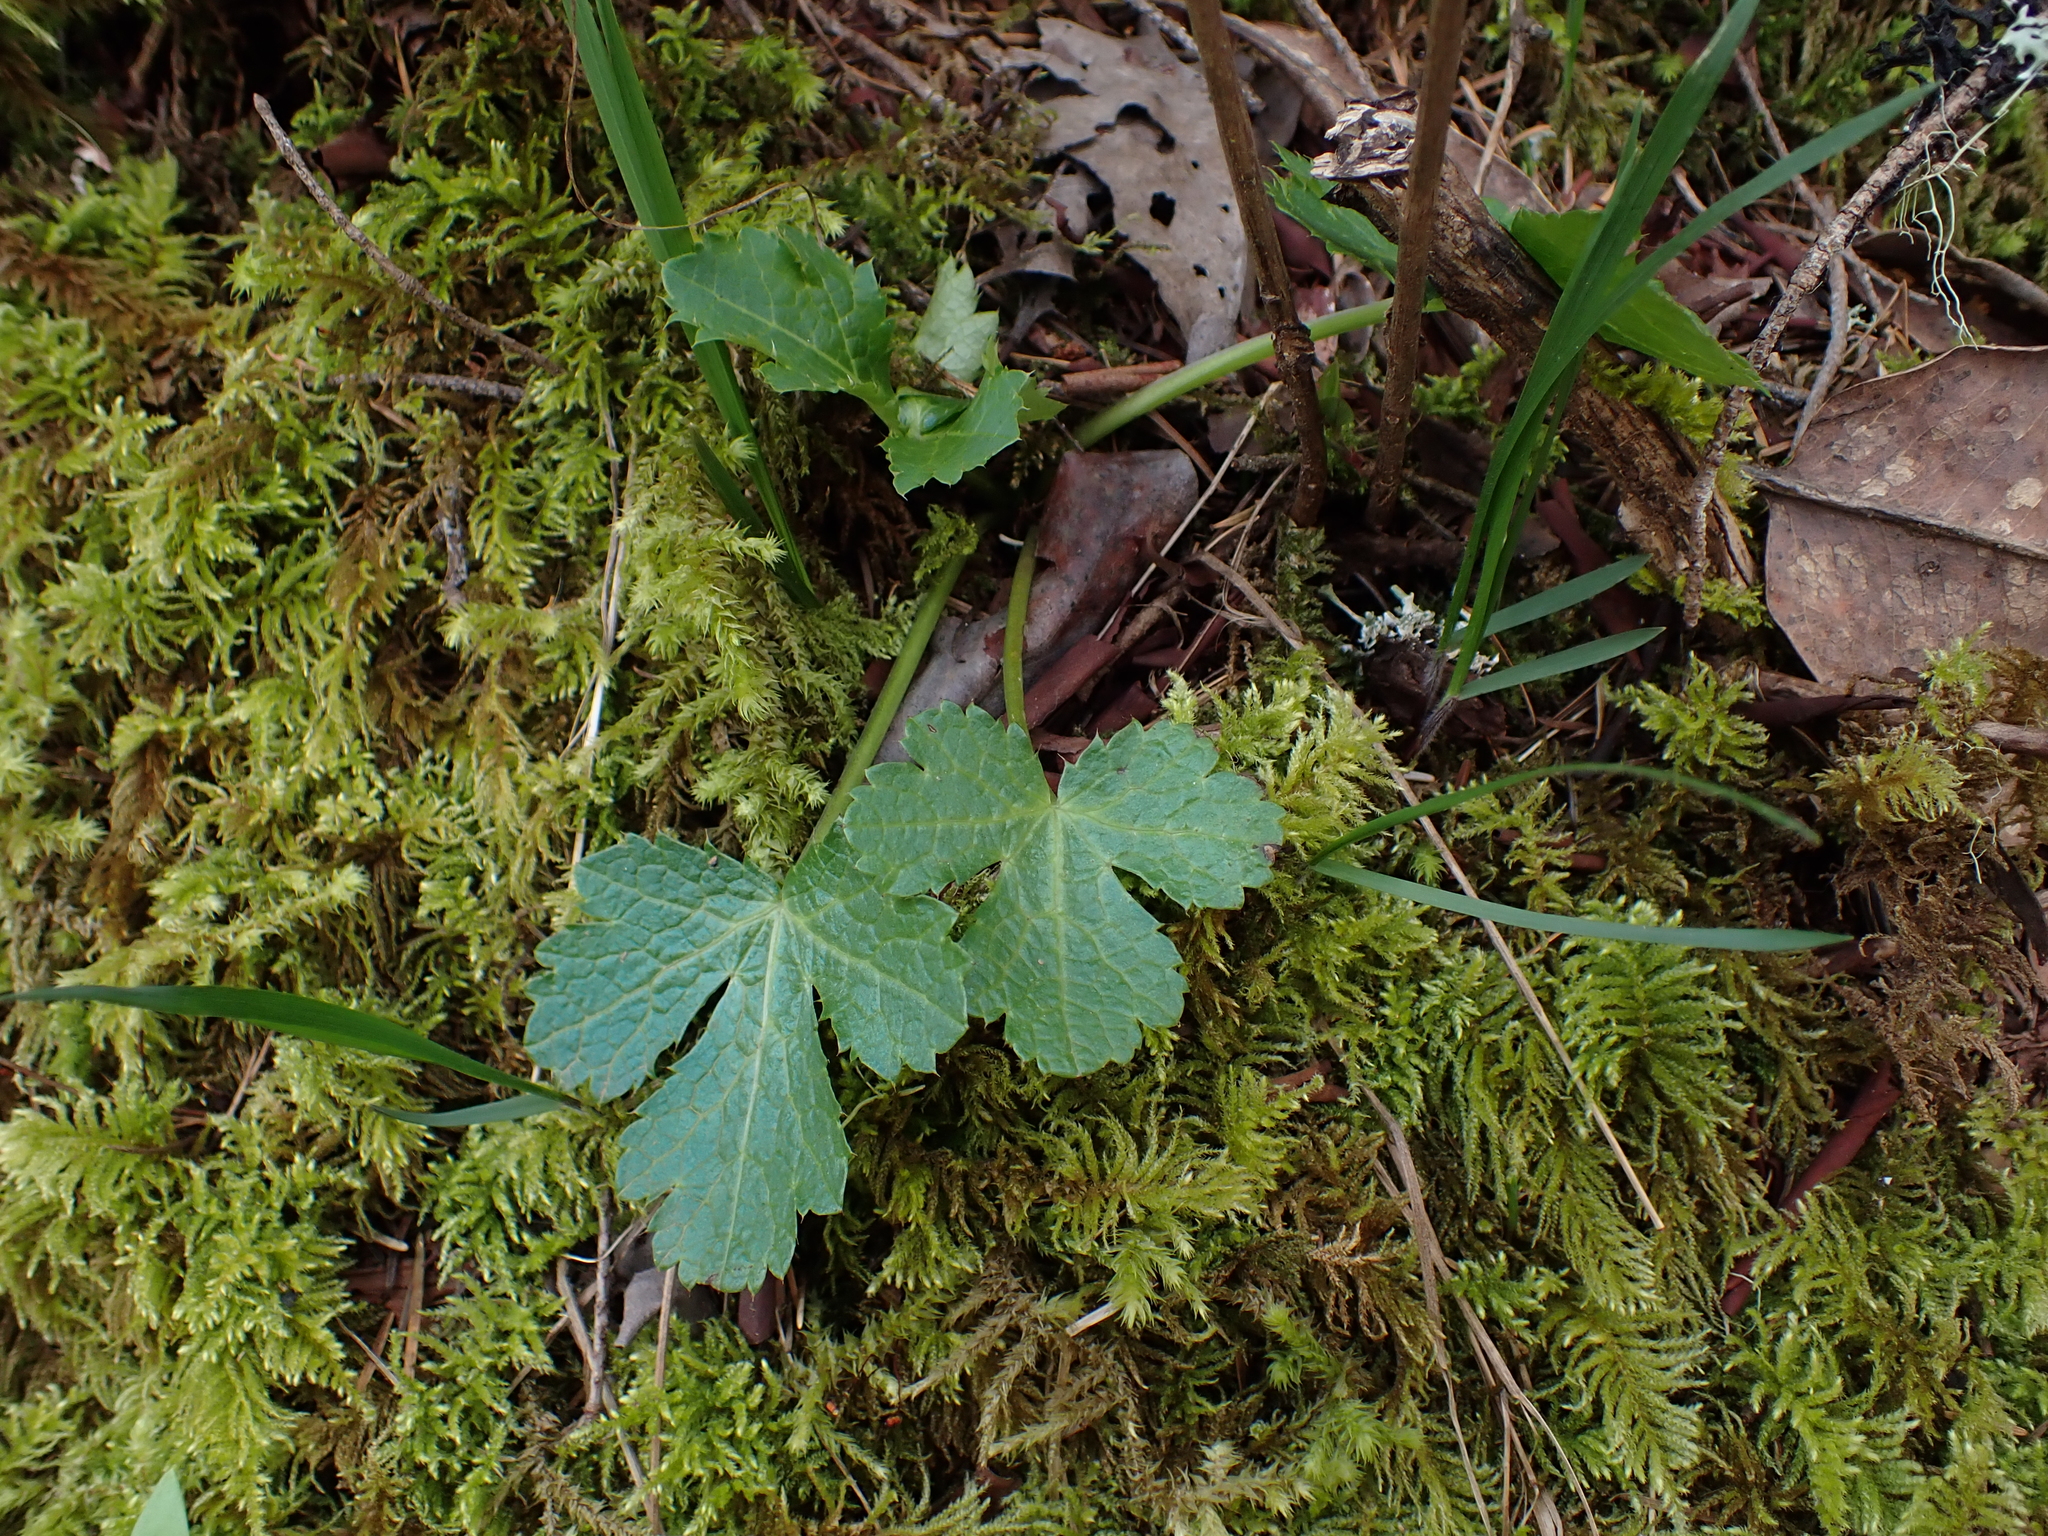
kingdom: Plantae
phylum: Tracheophyta
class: Magnoliopsida
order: Apiales
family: Apiaceae
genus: Sanicula
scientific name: Sanicula crassicaulis
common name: Western snakeroot
